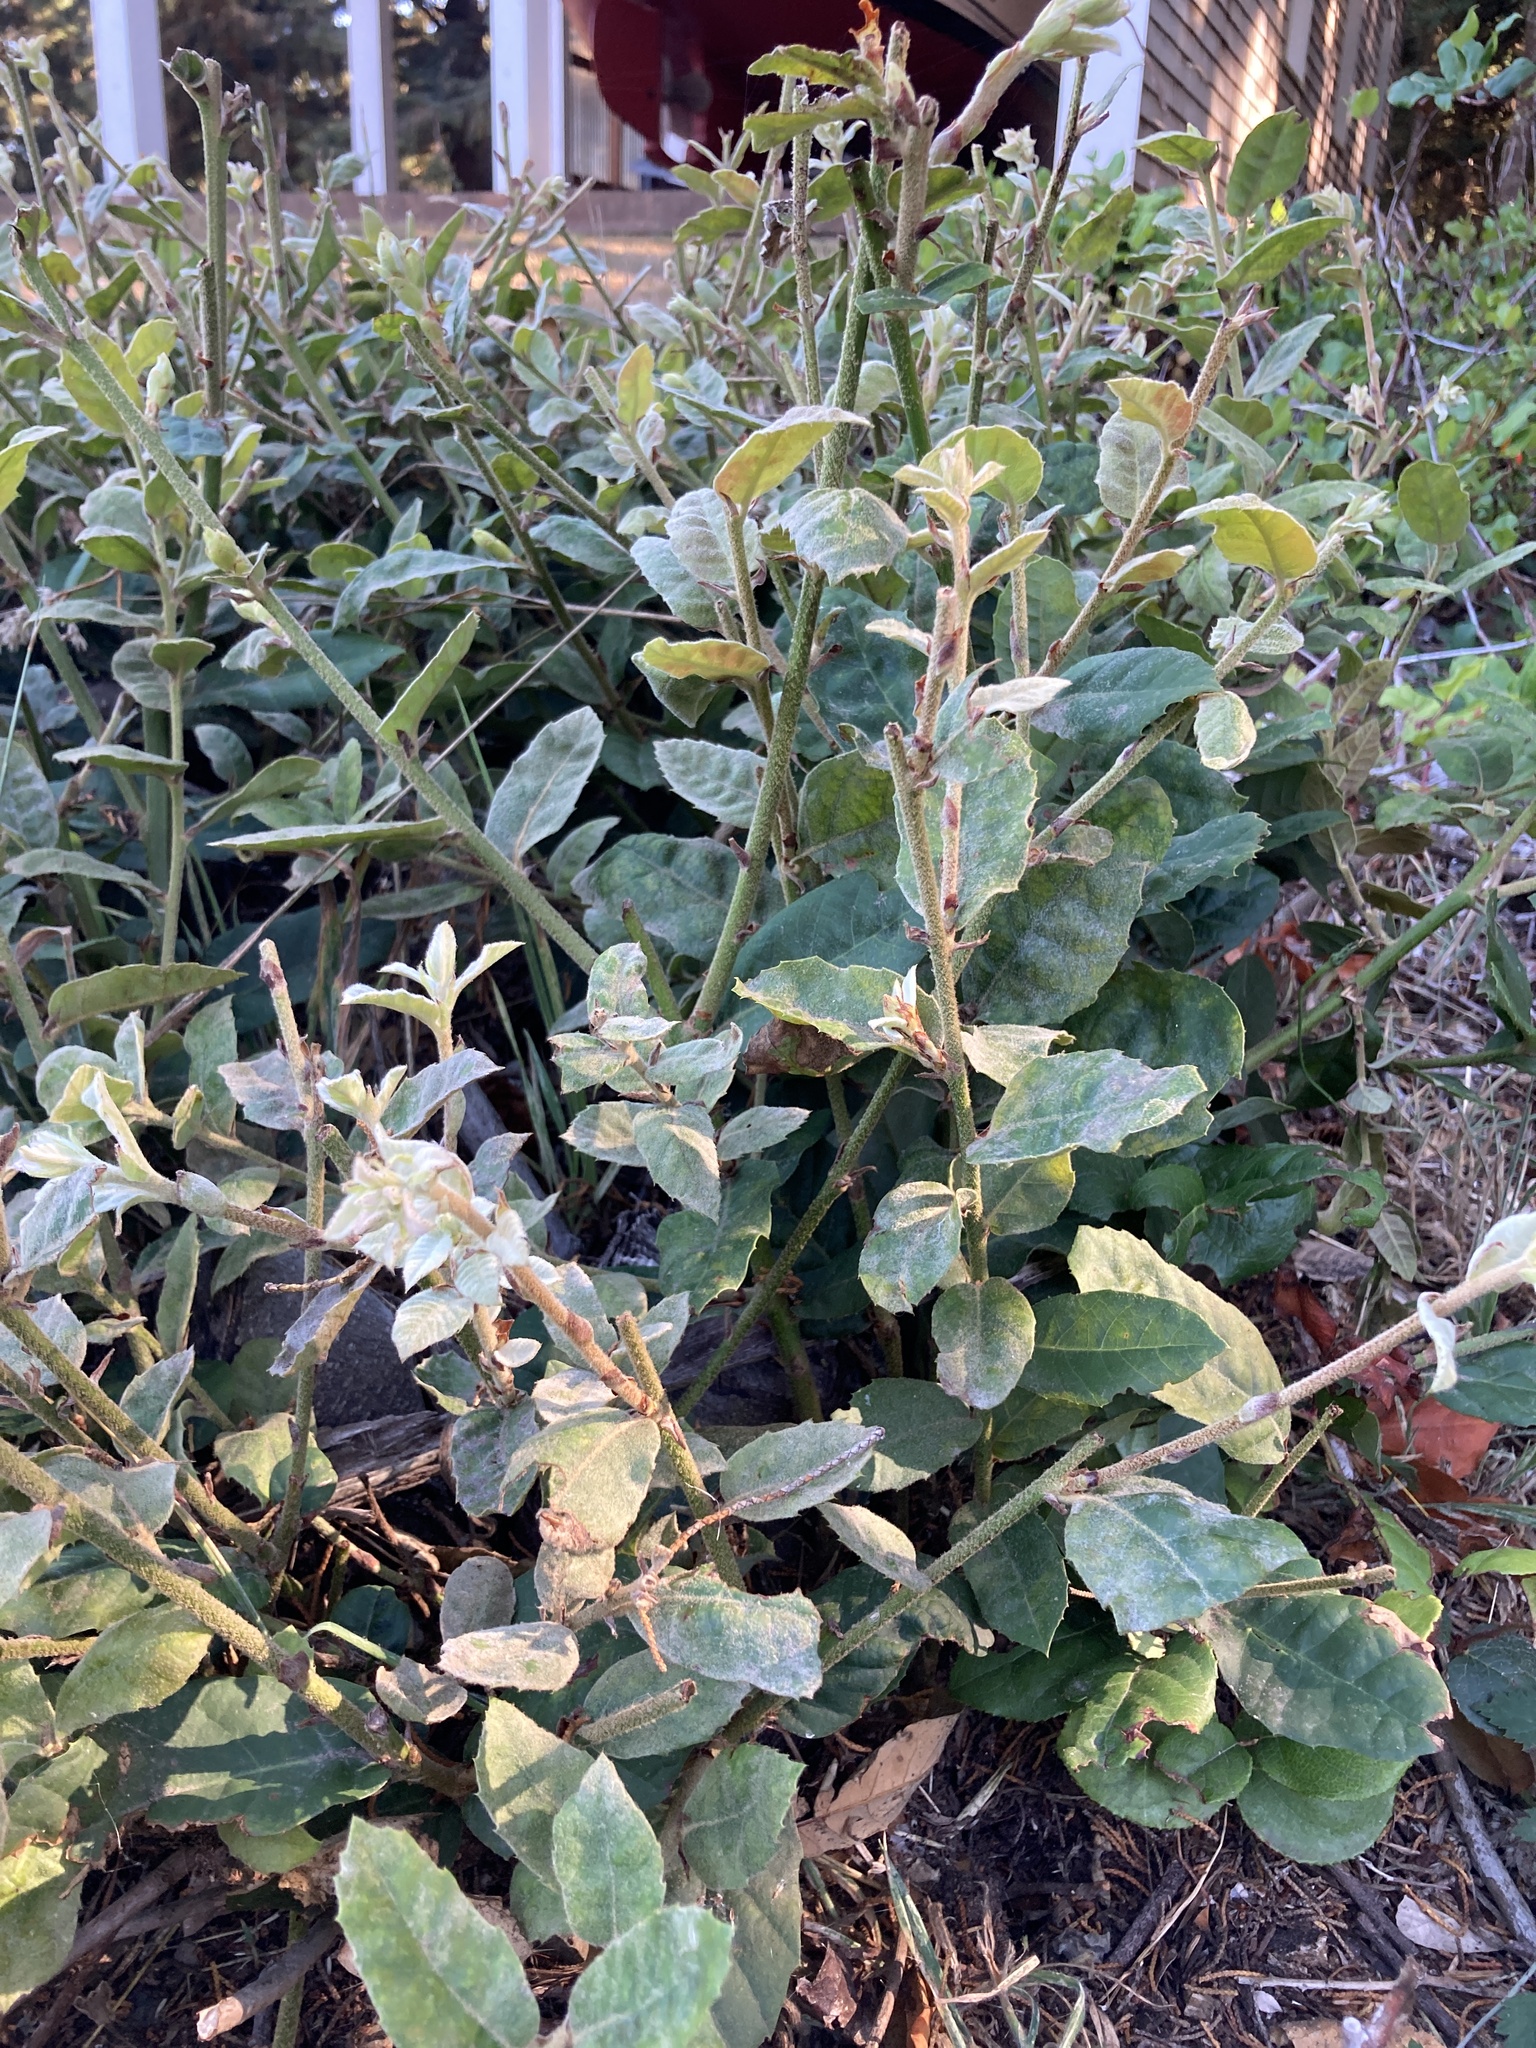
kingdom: Plantae
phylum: Tracheophyta
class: Magnoliopsida
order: Fagales
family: Fagaceae
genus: Notholithocarpus
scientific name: Notholithocarpus densiflorus
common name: Tan bark oak
